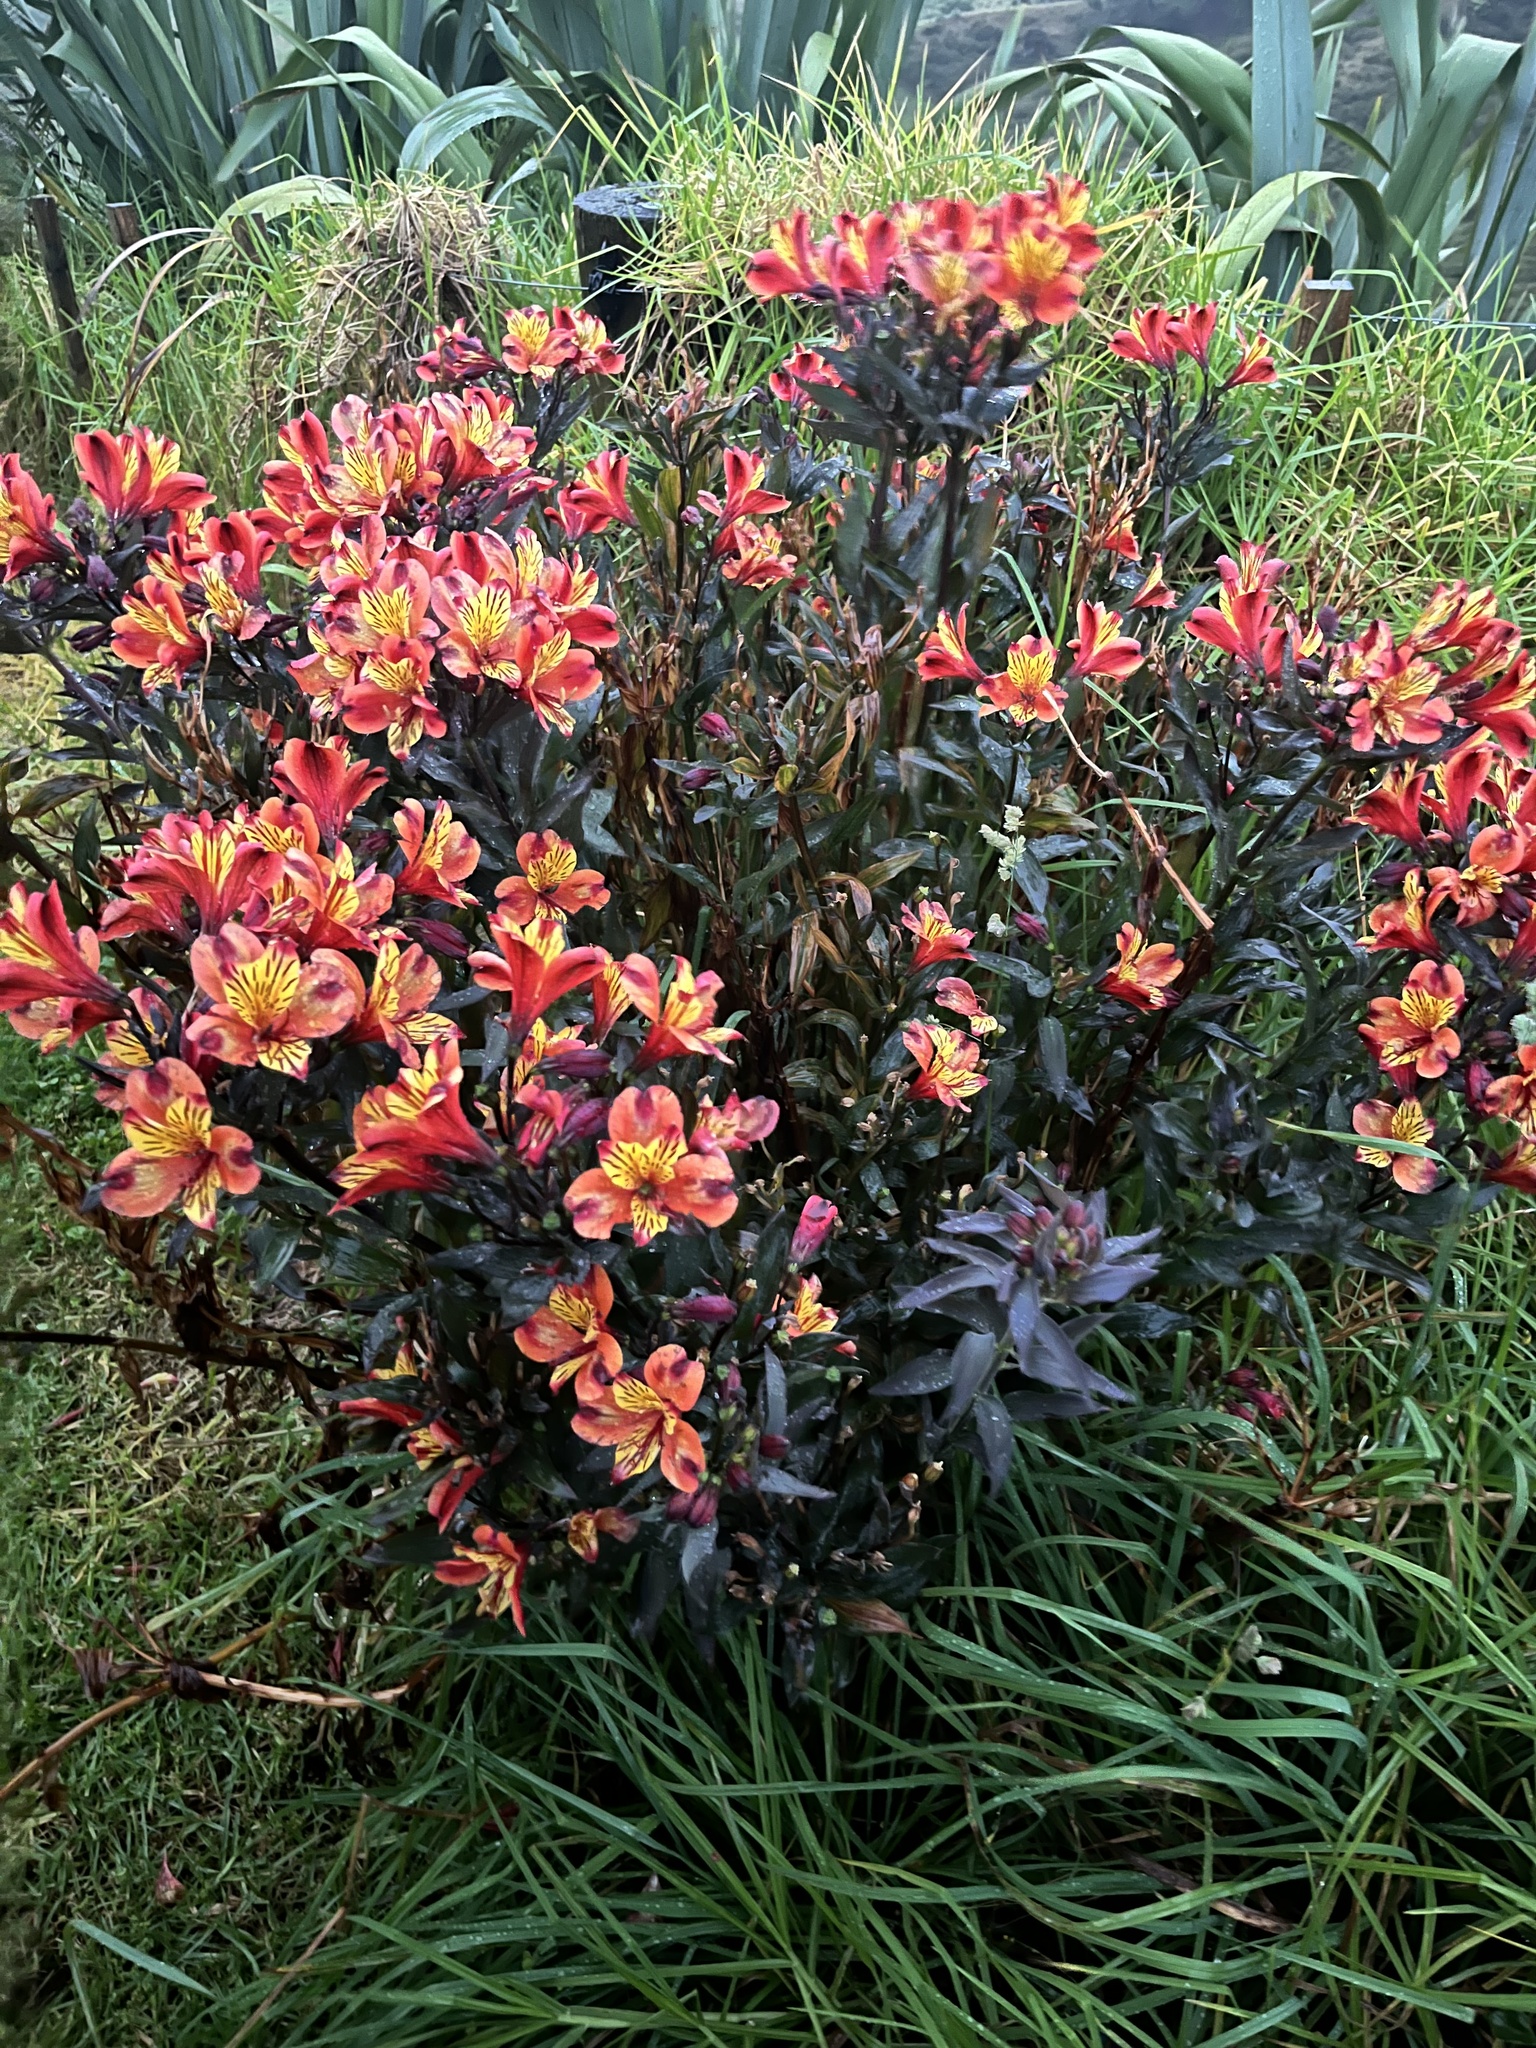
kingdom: Plantae
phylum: Tracheophyta
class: Liliopsida
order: Liliales
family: Alstroemeriaceae
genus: Alstroemeria
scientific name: Alstroemeria ligtu
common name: St. martin's-flower
